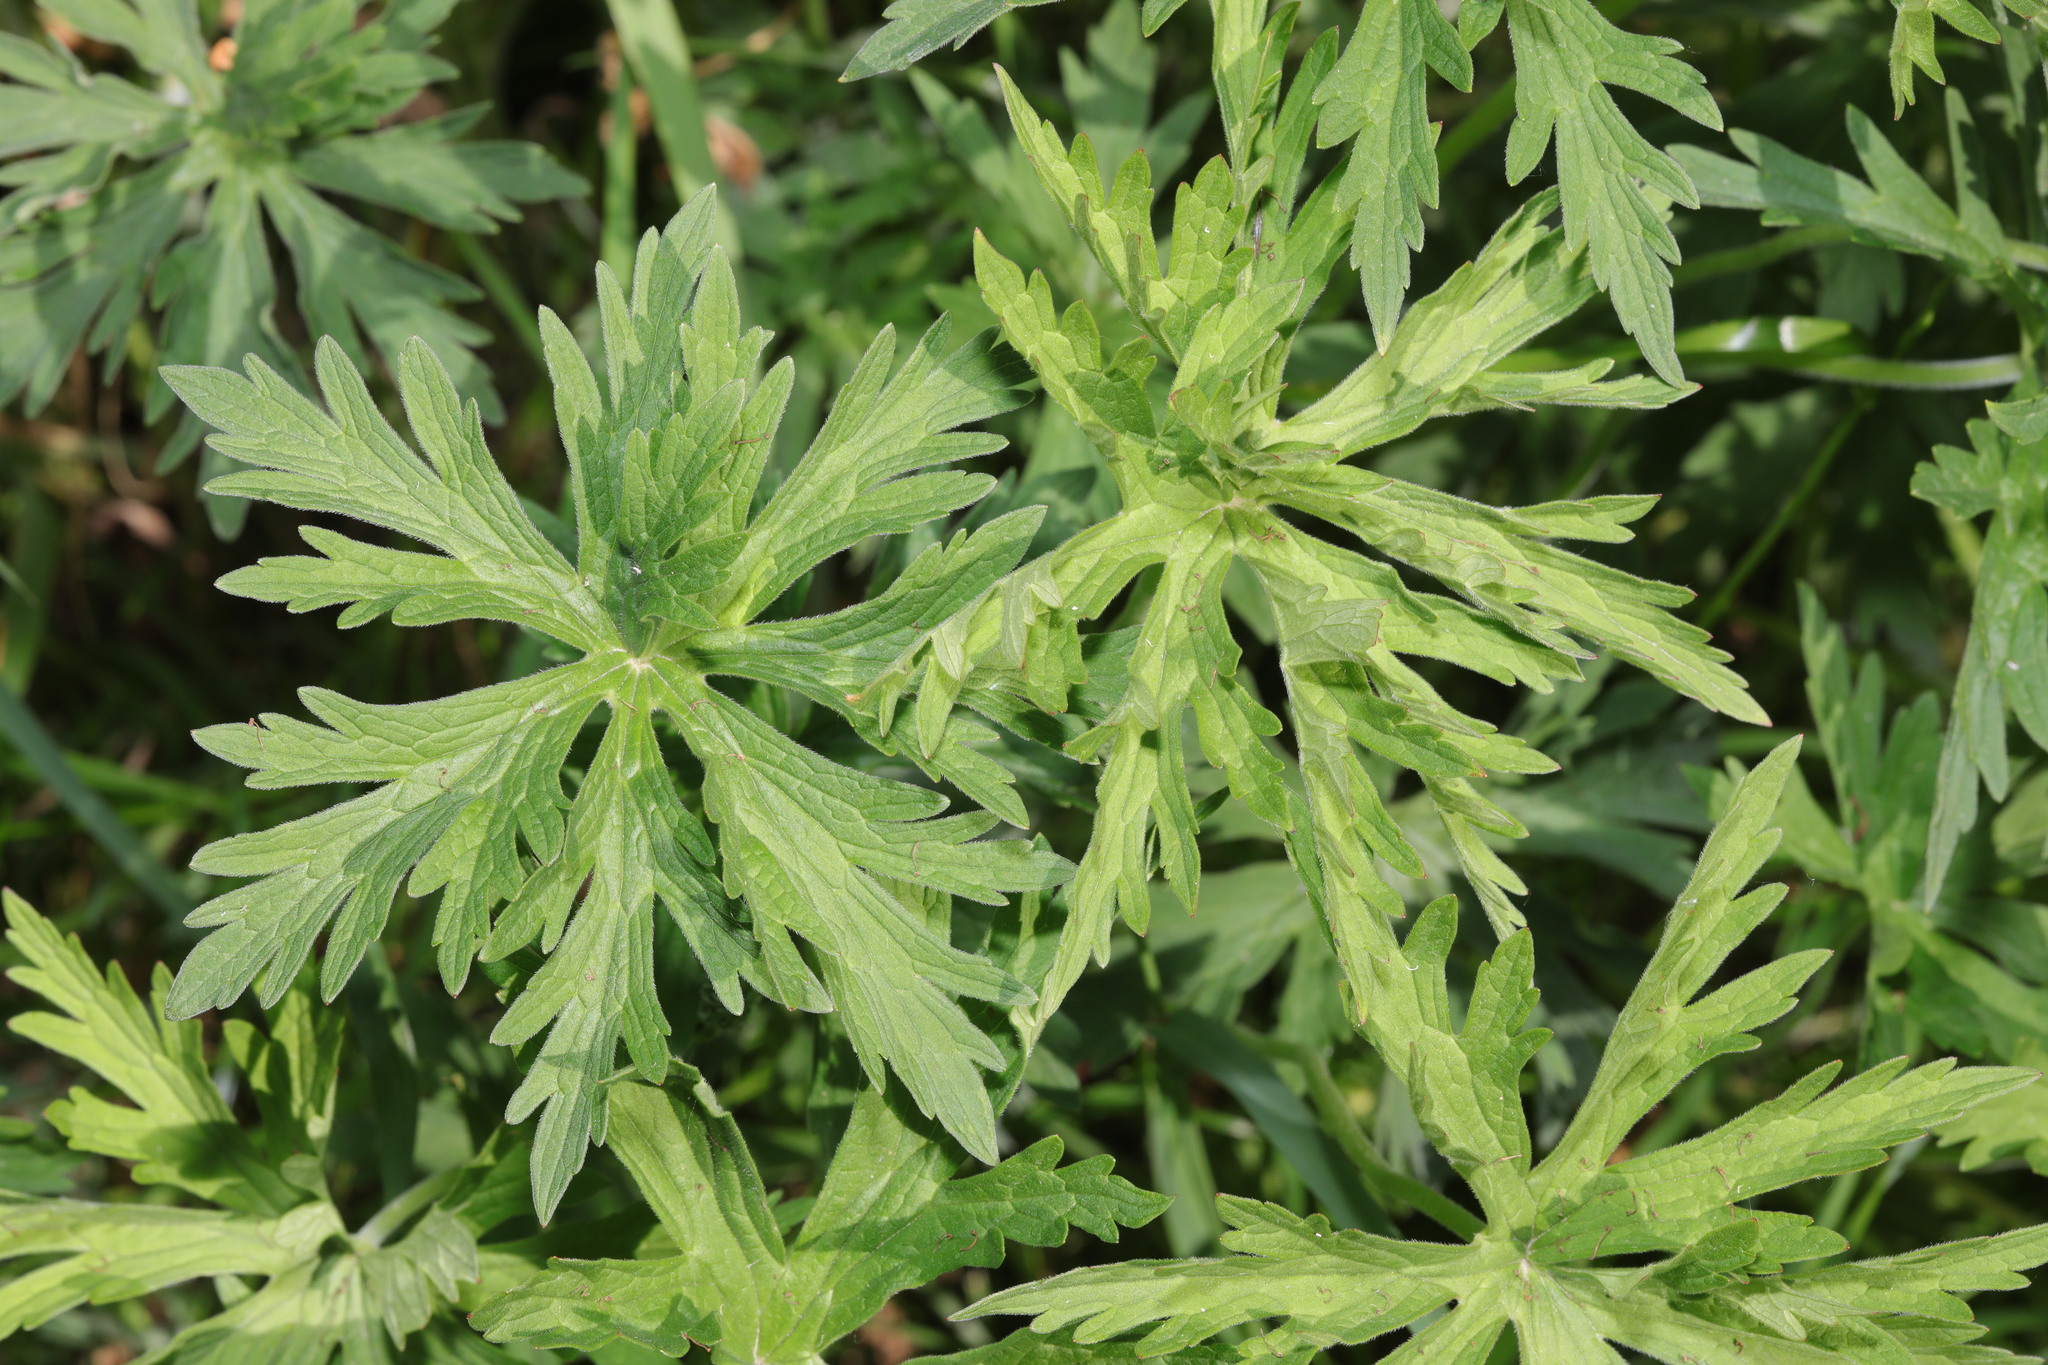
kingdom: Plantae
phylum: Tracheophyta
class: Magnoliopsida
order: Geraniales
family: Geraniaceae
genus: Geranium
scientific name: Geranium pratense
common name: Meadow crane's-bill
